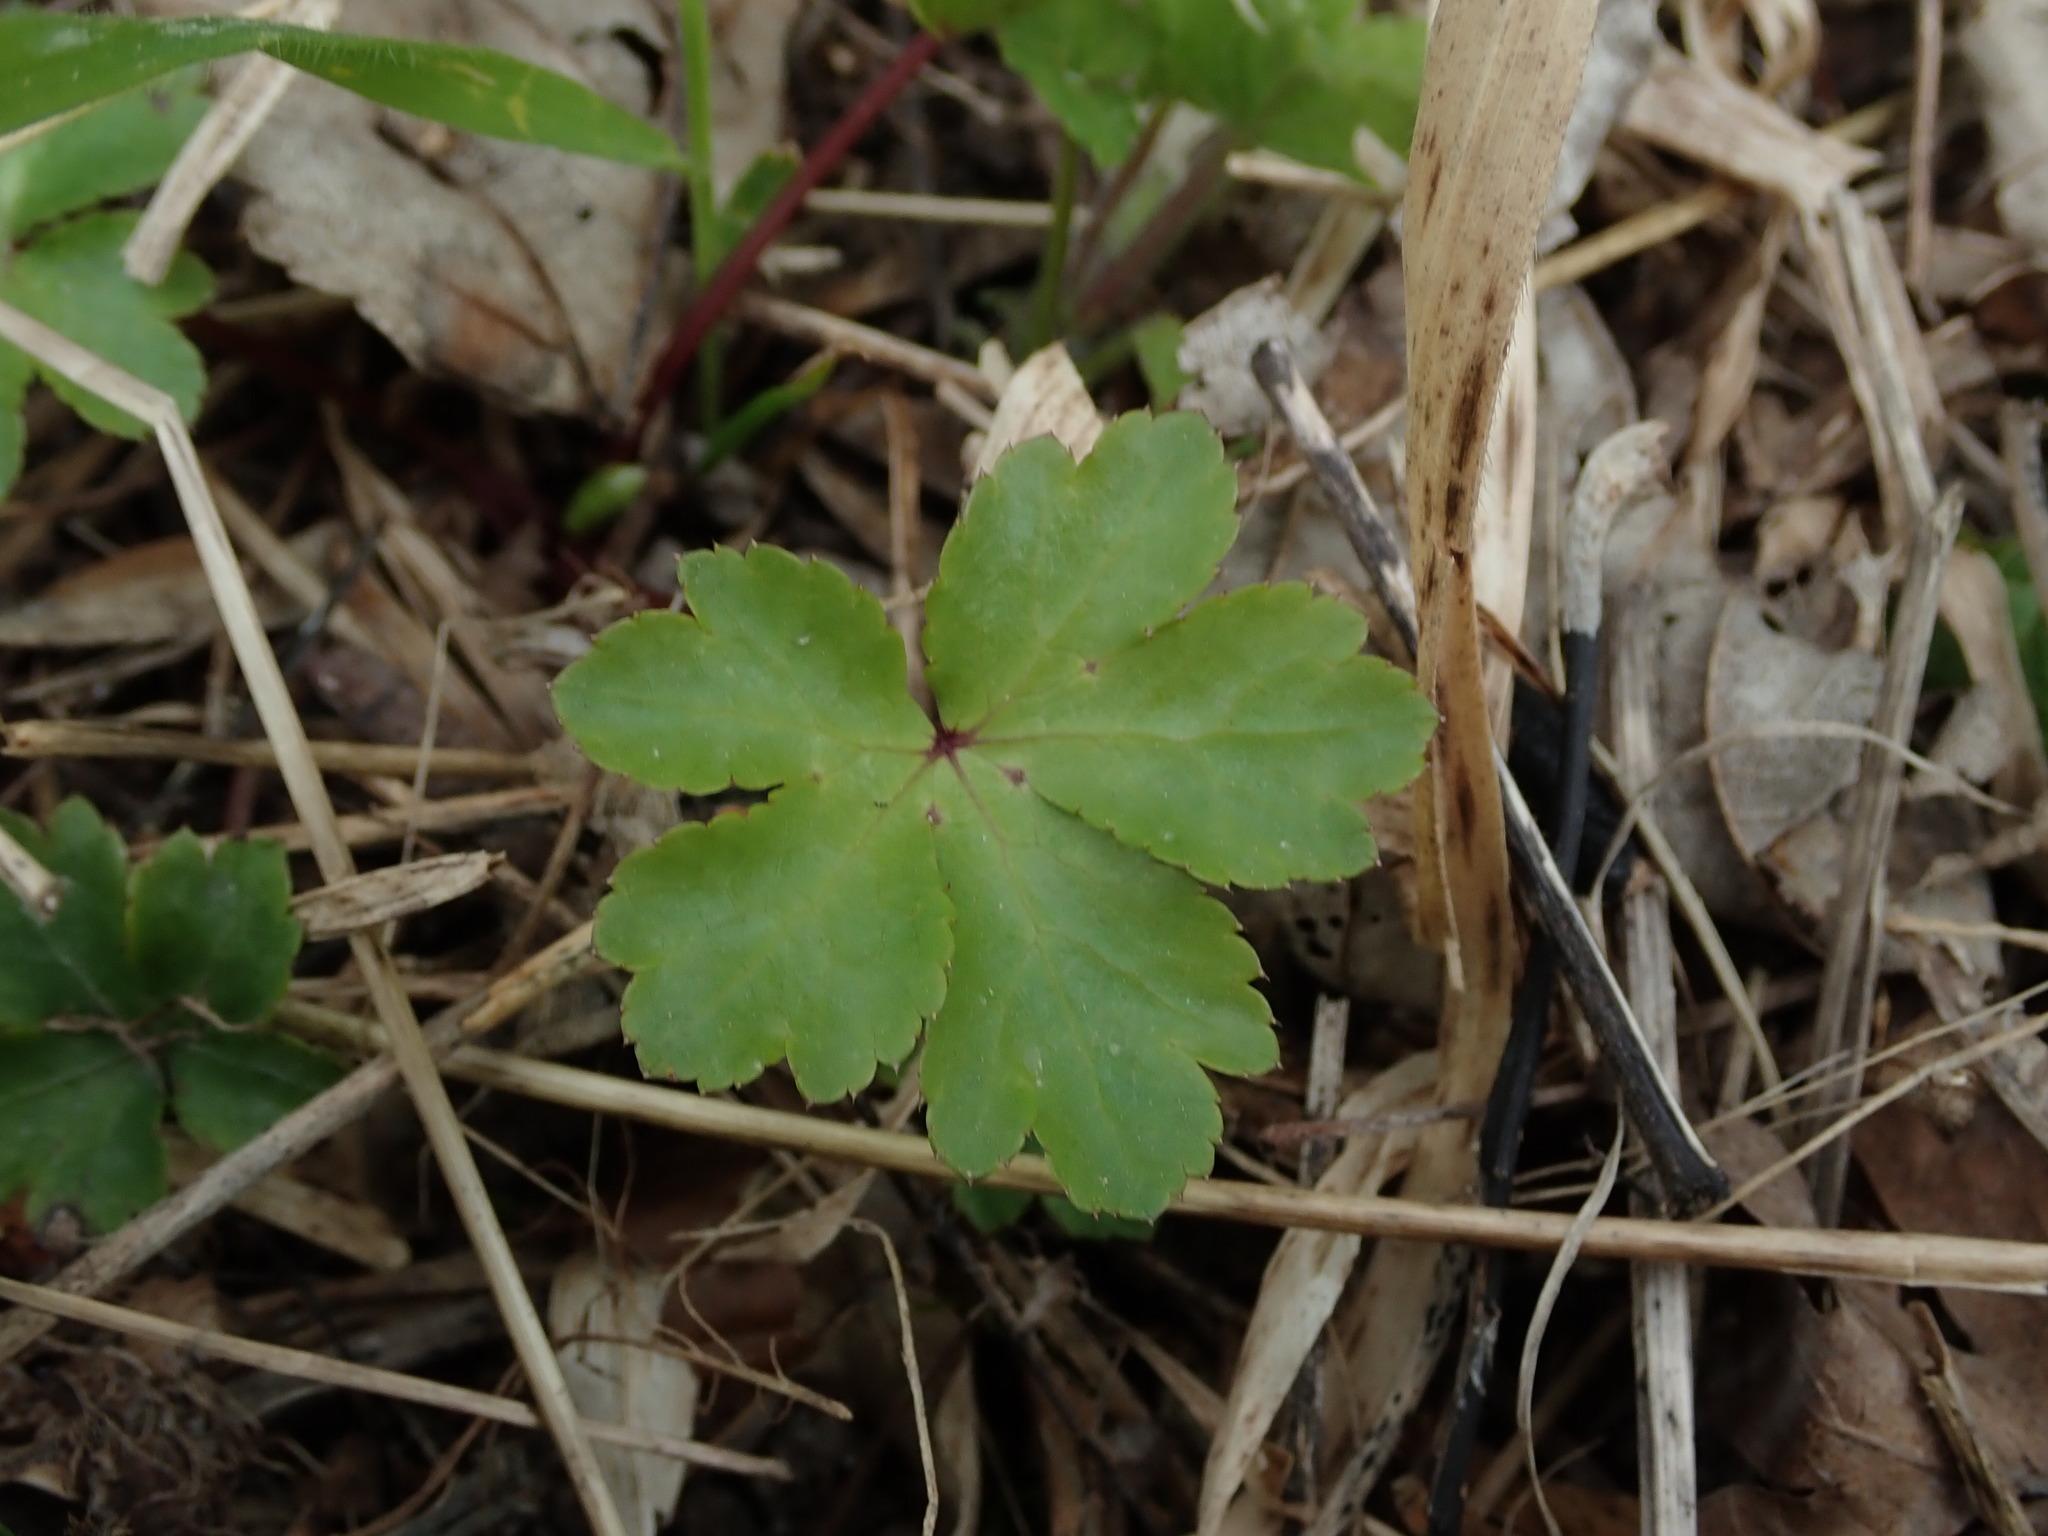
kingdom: Plantae
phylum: Tracheophyta
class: Magnoliopsida
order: Apiales
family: Apiaceae
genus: Sanicula
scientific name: Sanicula europaea
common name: Sanicle
